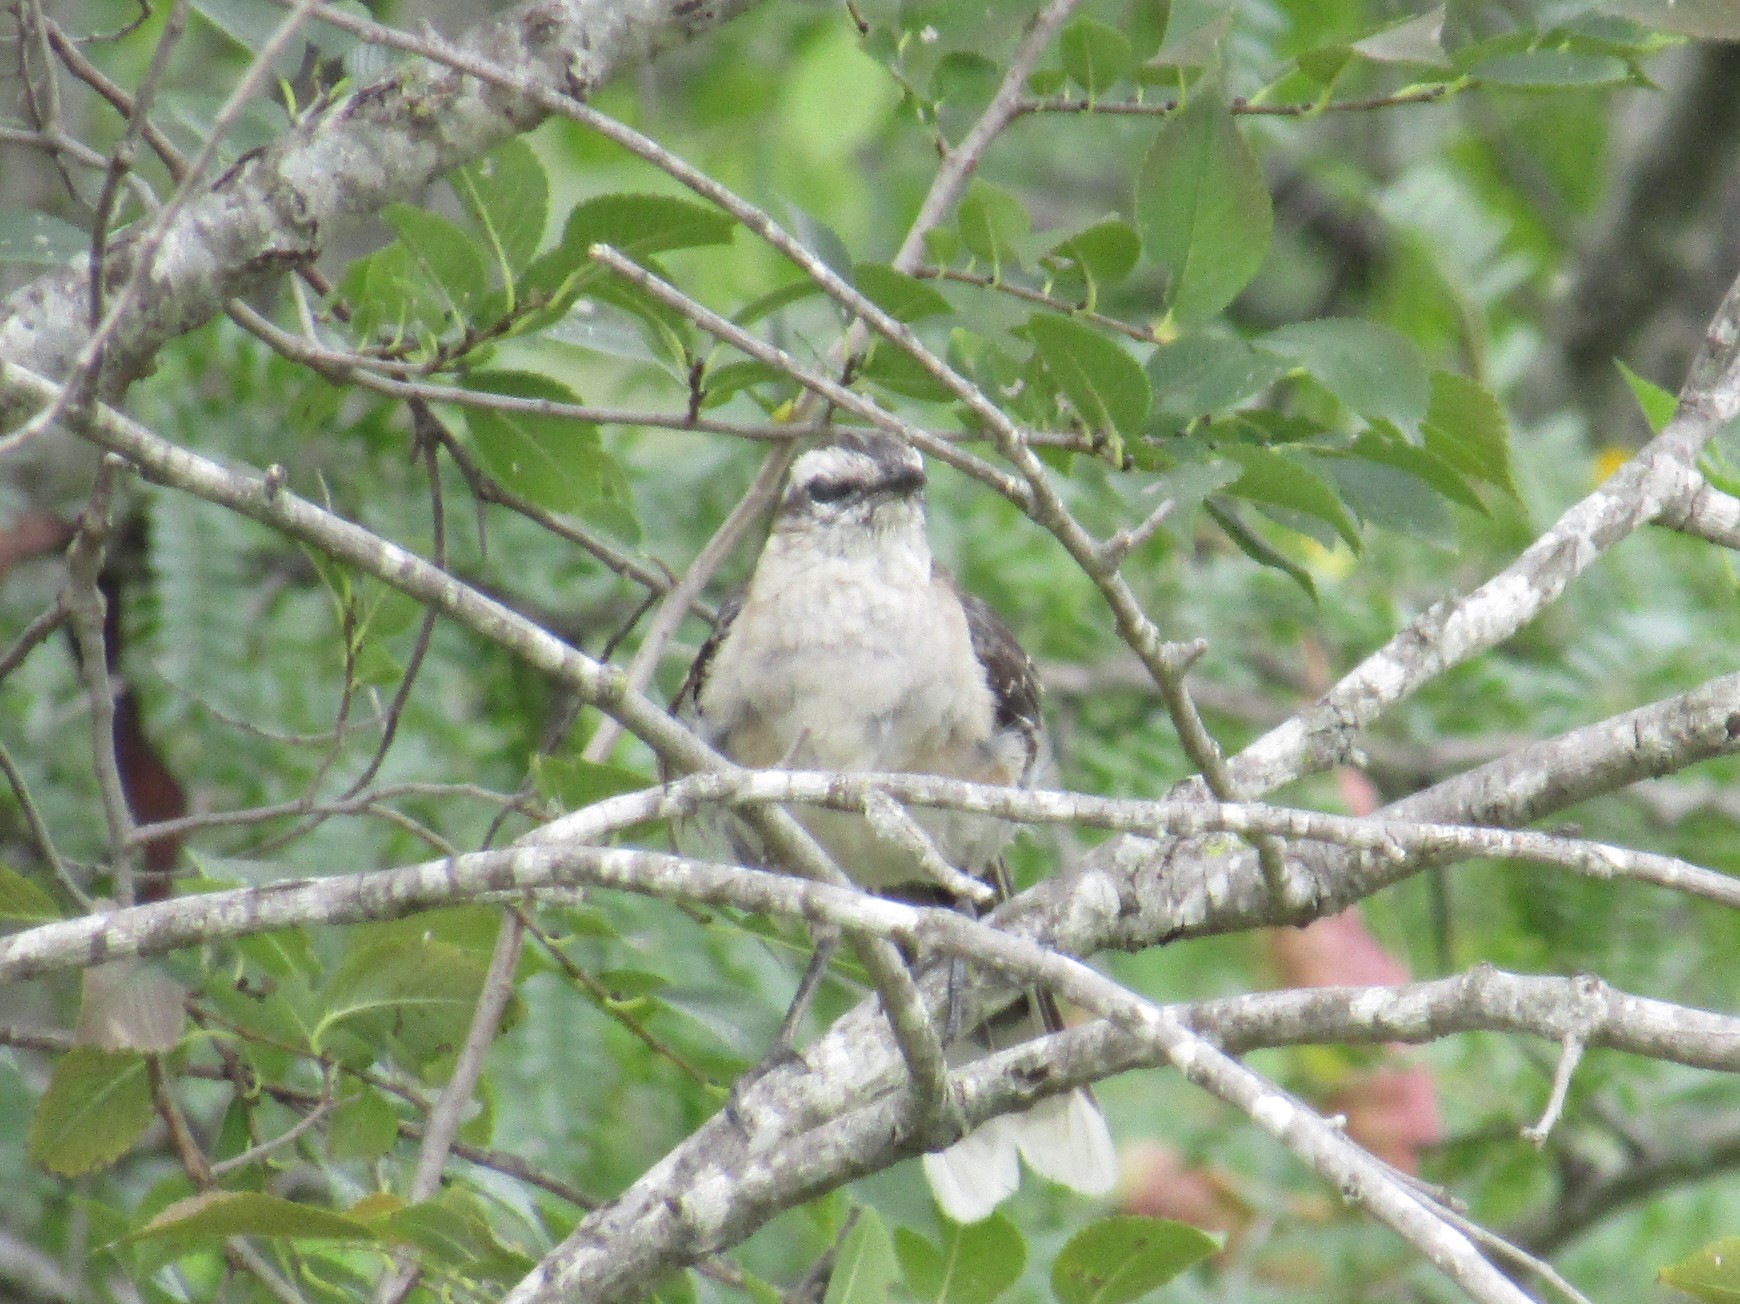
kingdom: Animalia
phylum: Chordata
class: Aves
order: Passeriformes
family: Mimidae
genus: Mimus
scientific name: Mimus saturninus
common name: Chalk-browed mockingbird
